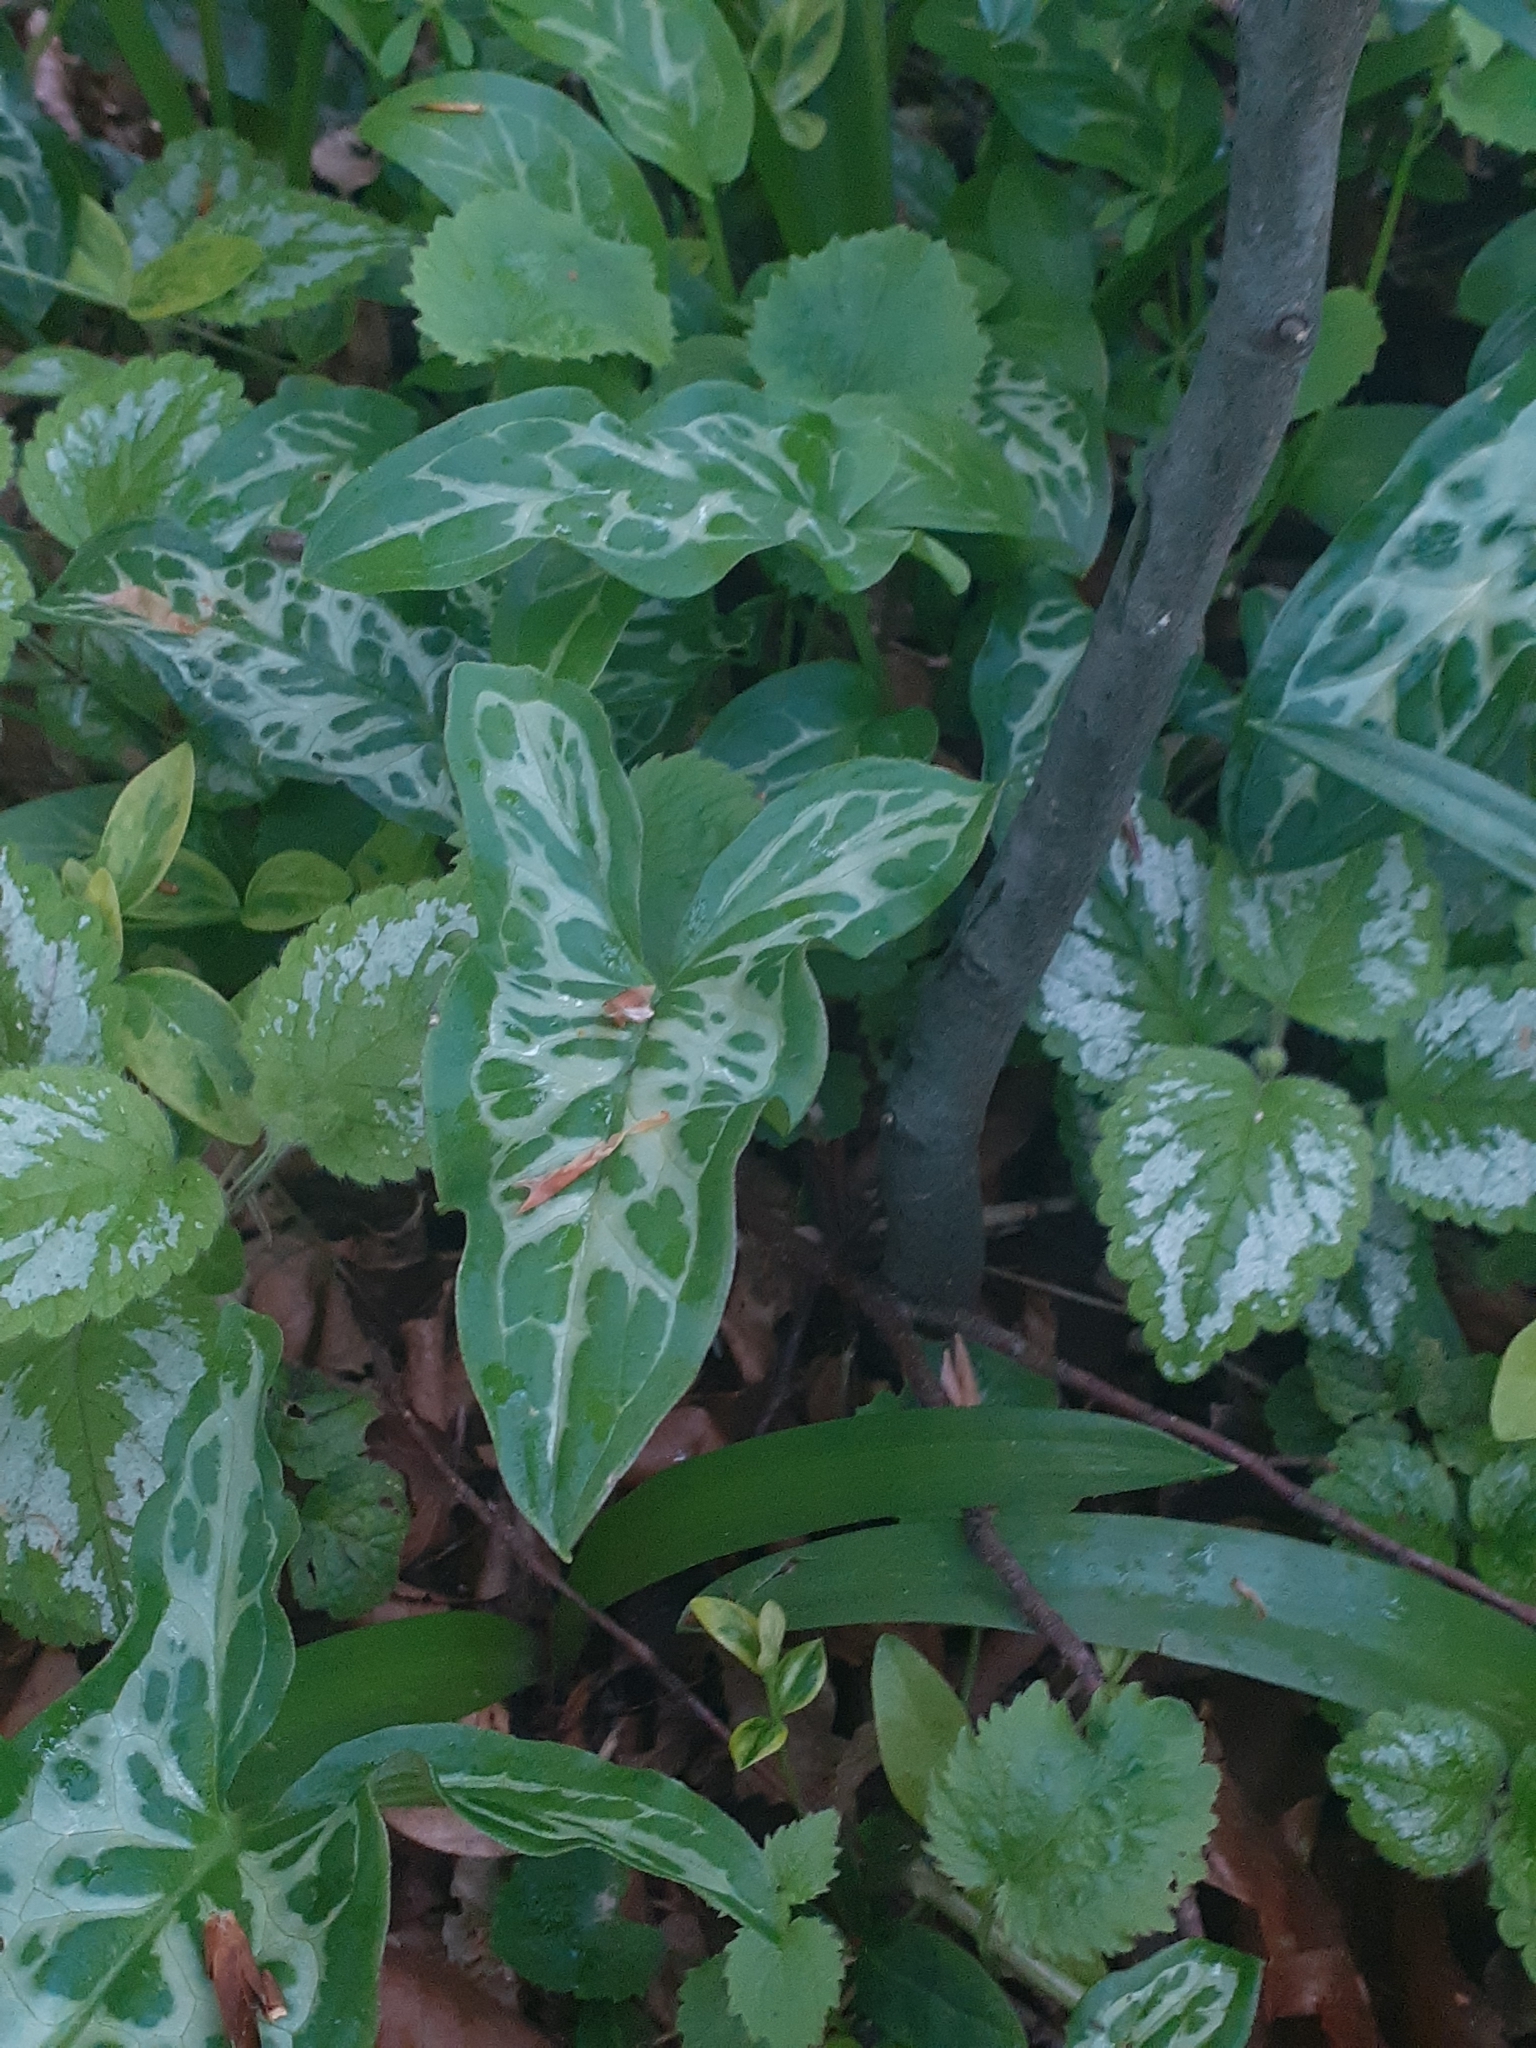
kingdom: Plantae
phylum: Tracheophyta
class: Liliopsida
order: Alismatales
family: Araceae
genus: Arum
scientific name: Arum italicum
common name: Italian lords-and-ladies
